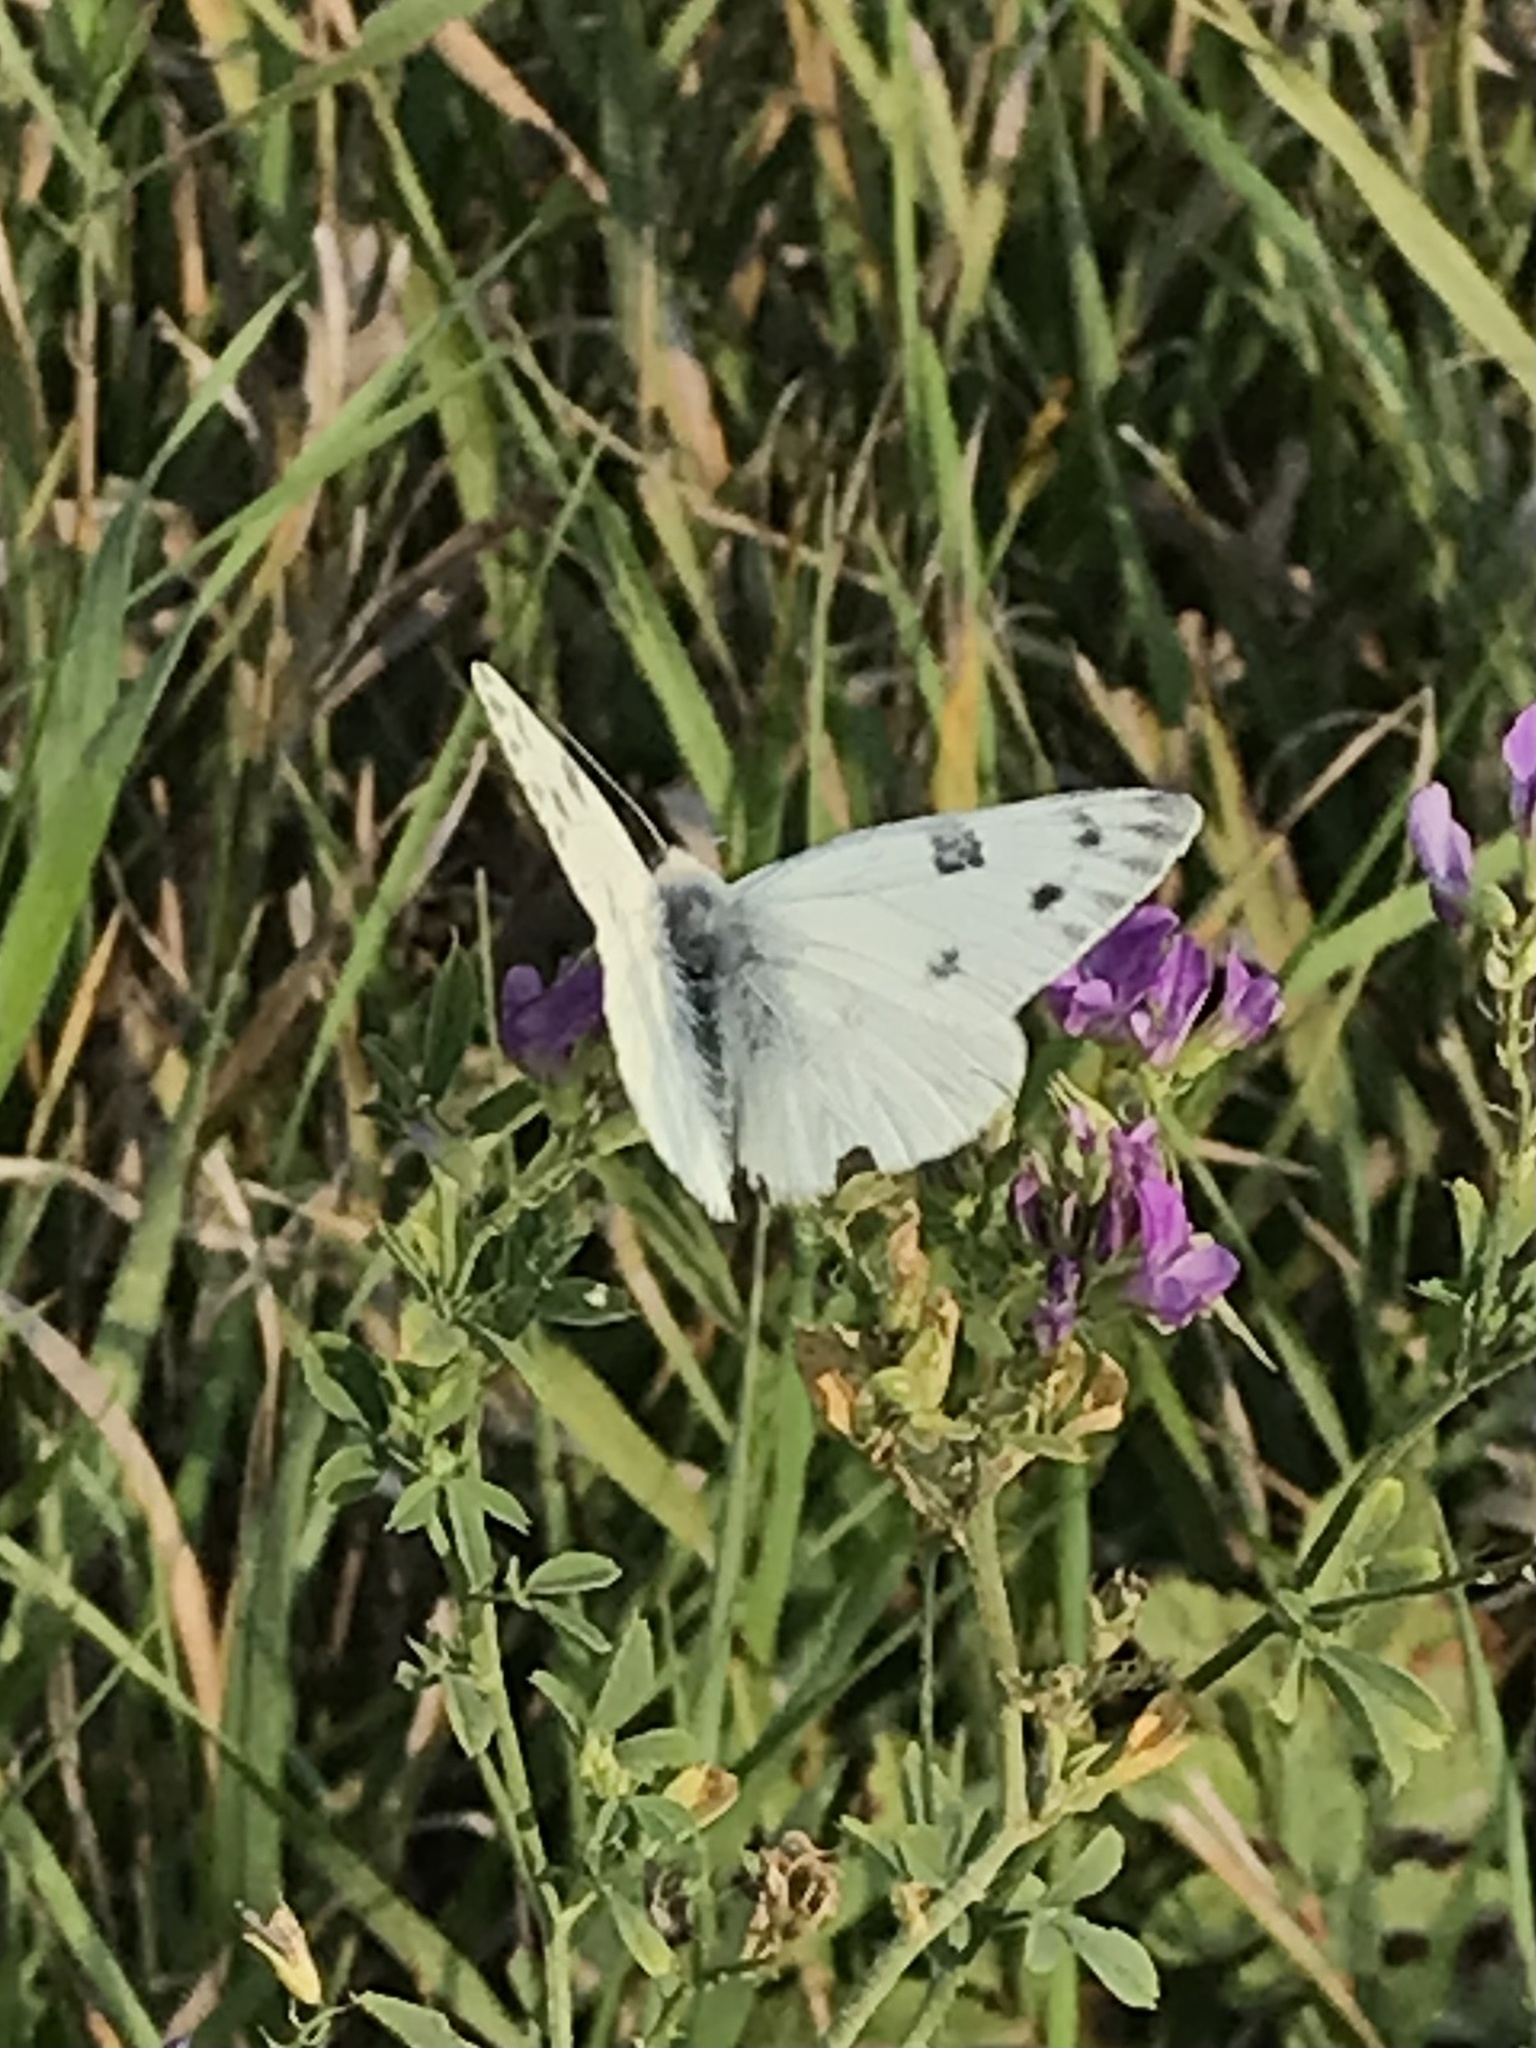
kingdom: Animalia
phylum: Arthropoda
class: Insecta
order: Lepidoptera
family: Pieridae
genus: Pontia
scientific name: Pontia occidentalis
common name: Western white
